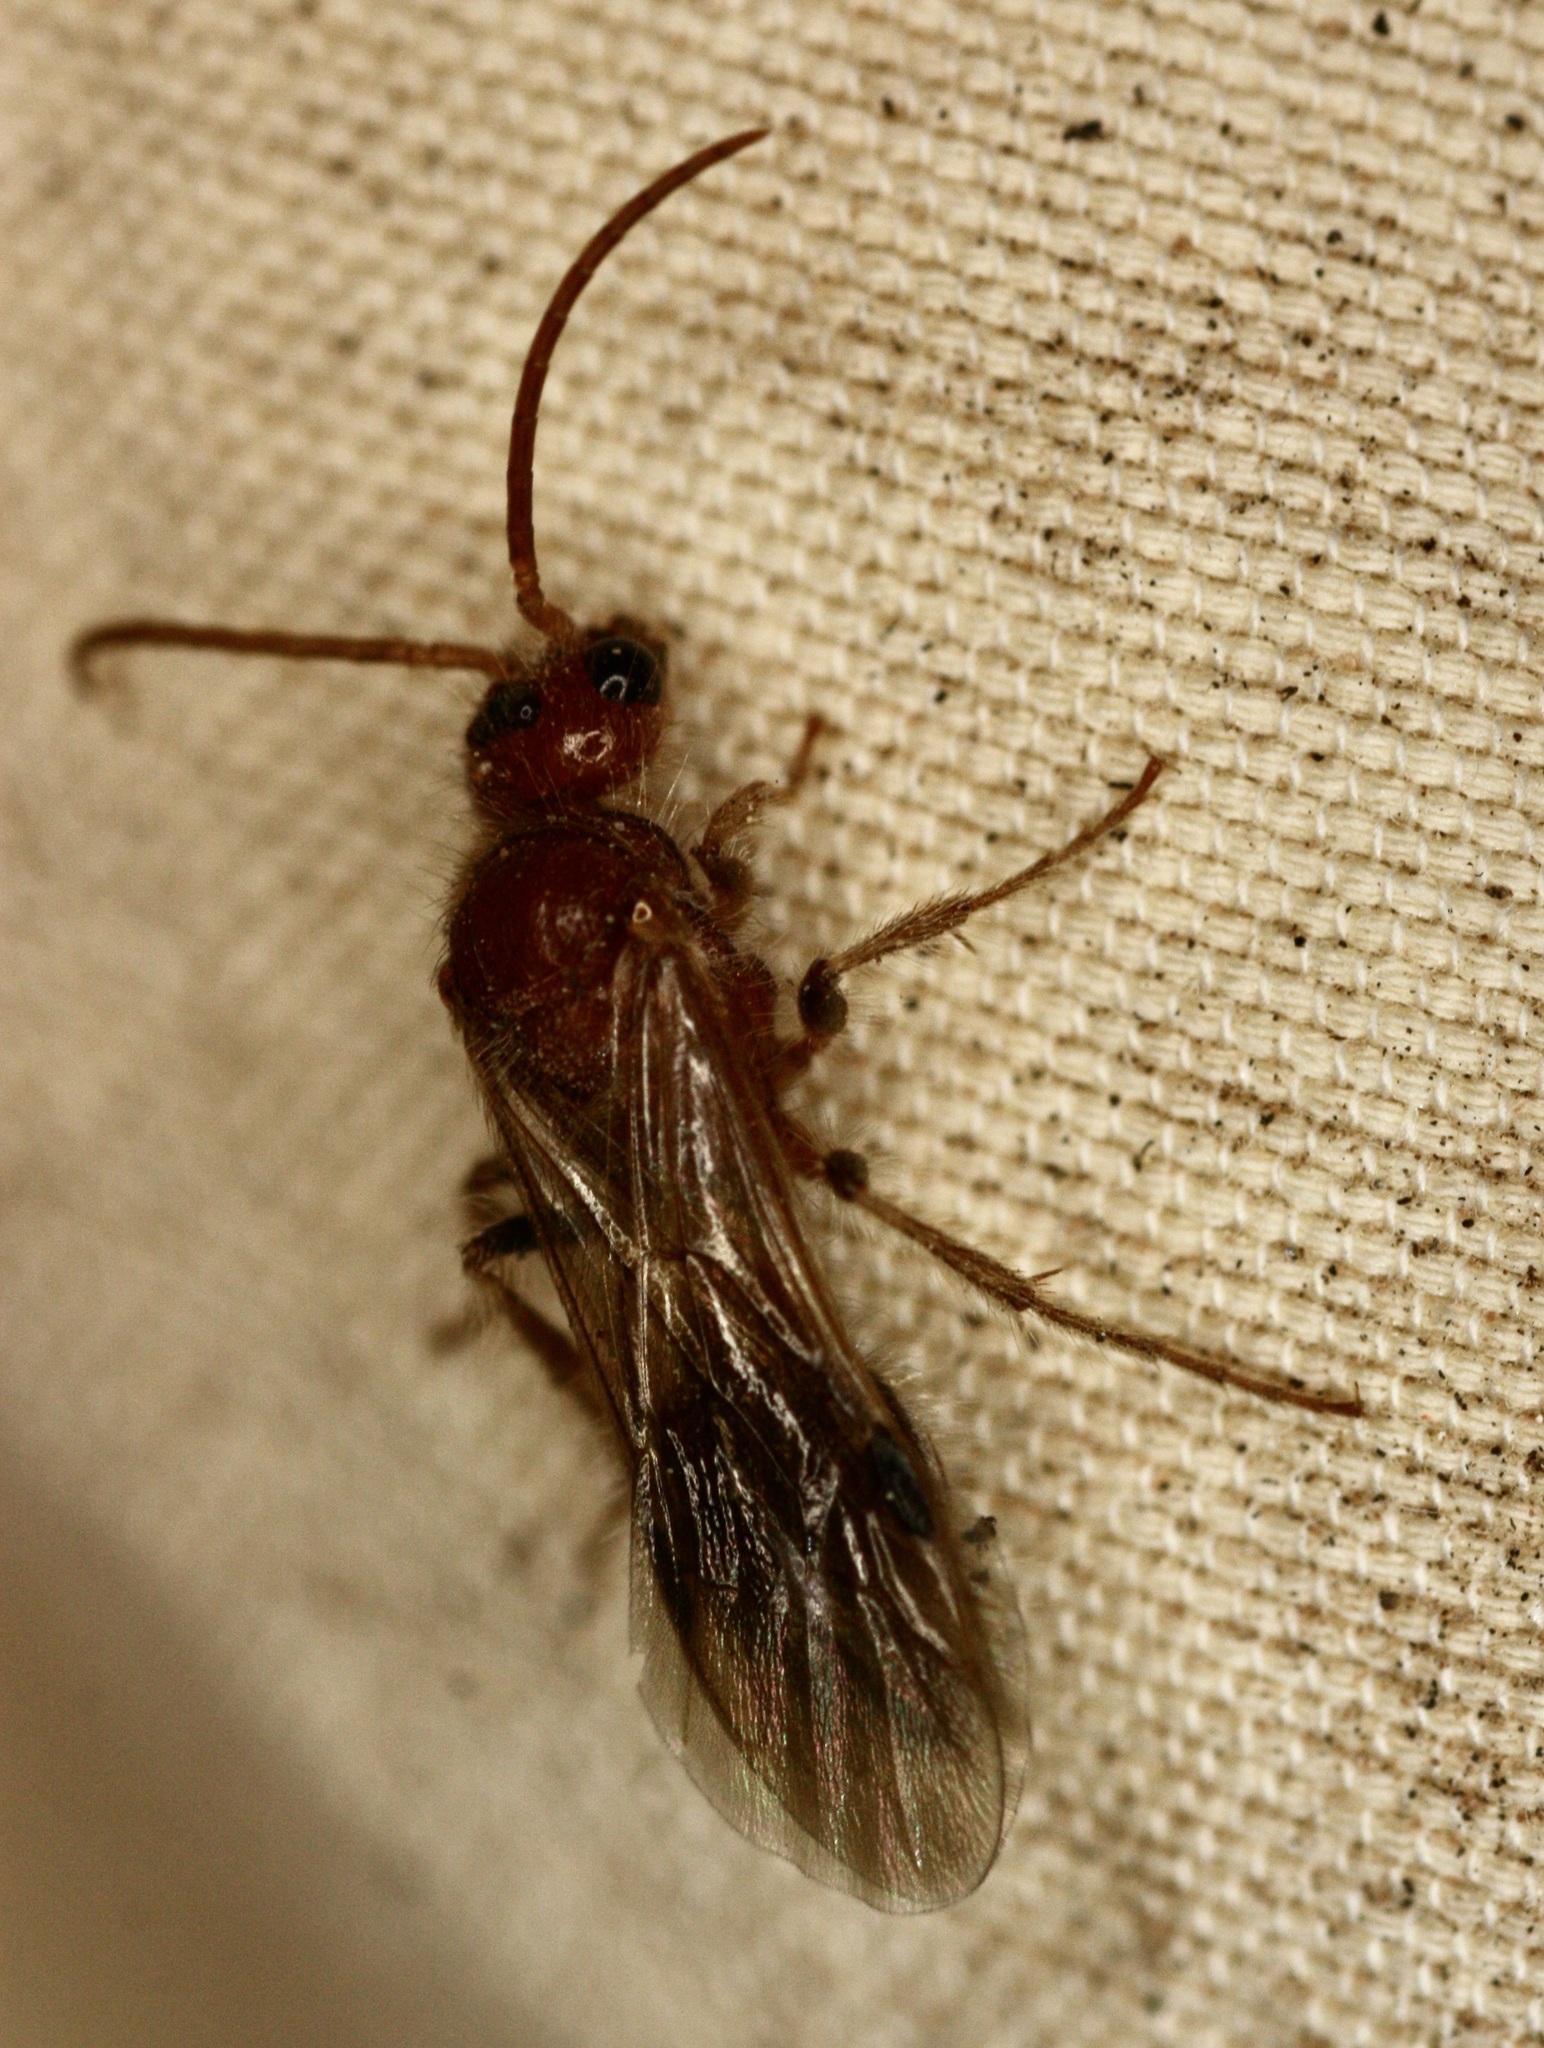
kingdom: Animalia
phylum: Arthropoda
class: Insecta
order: Hymenoptera
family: Mutillidae
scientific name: Mutillidae
